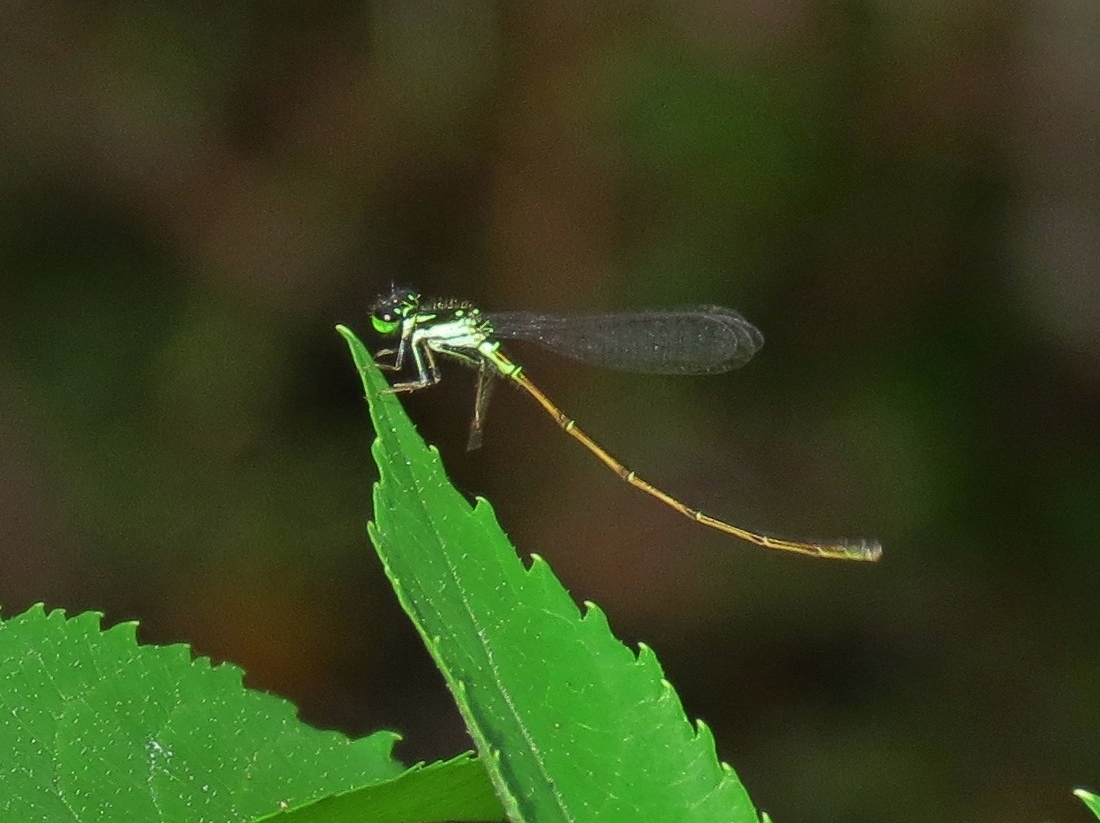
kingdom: Animalia
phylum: Arthropoda
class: Insecta
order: Odonata
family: Coenagrionidae
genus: Ischnura
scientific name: Ischnura posita
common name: Fragile forktail
